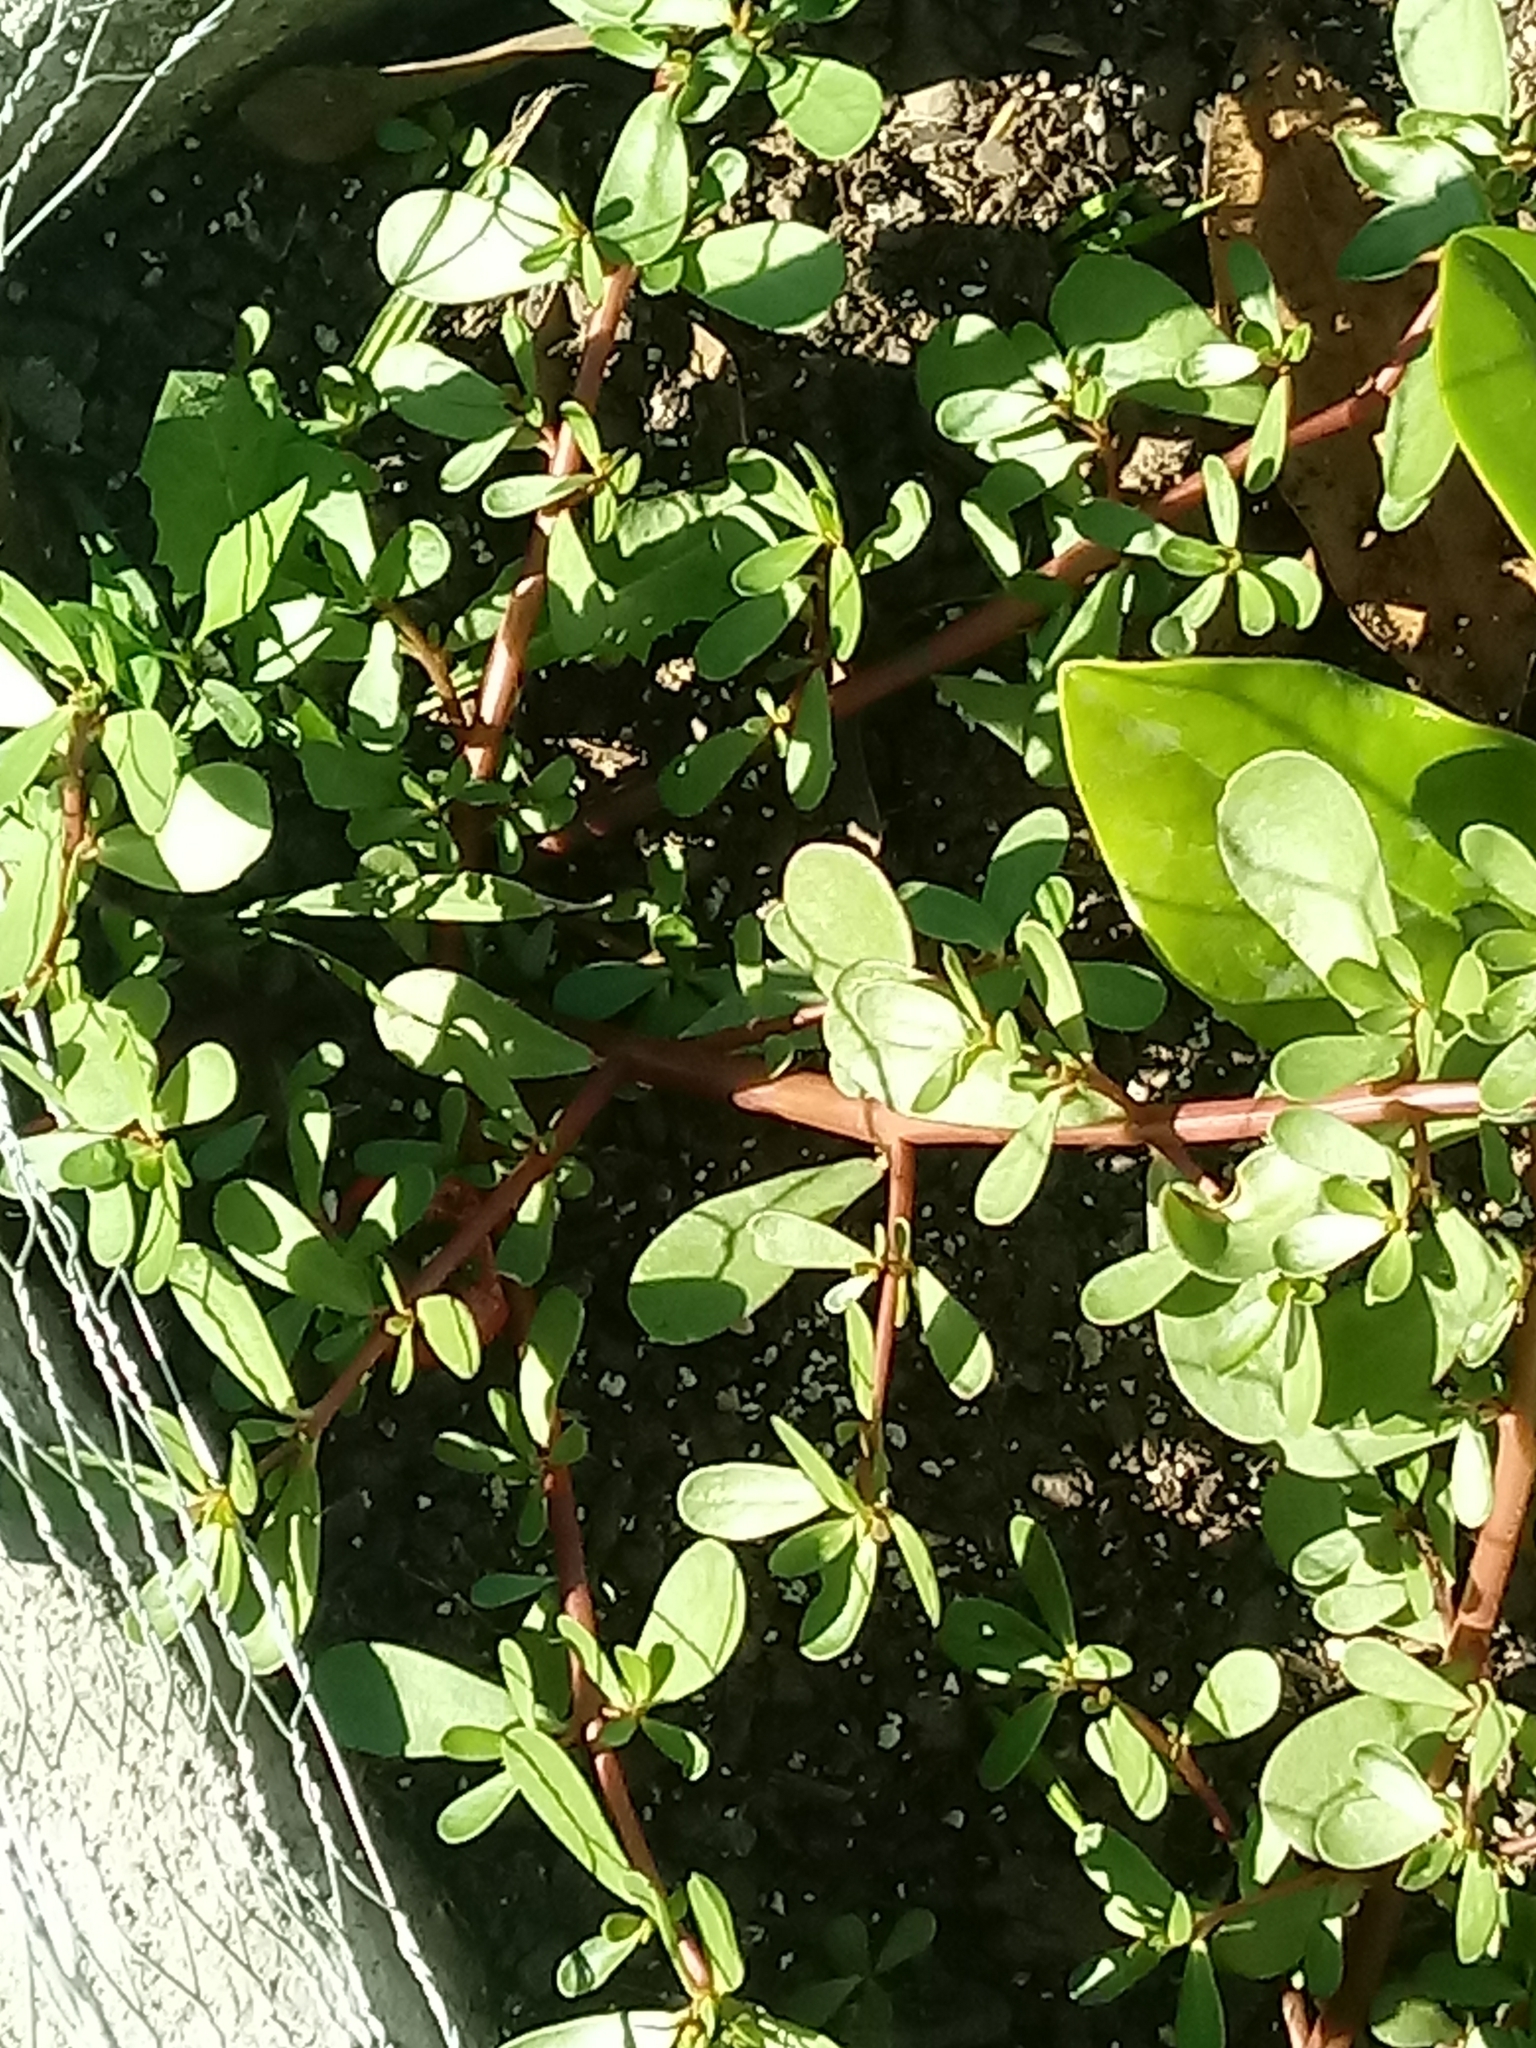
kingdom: Plantae
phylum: Tracheophyta
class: Magnoliopsida
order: Caryophyllales
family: Portulacaceae
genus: Portulaca
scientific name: Portulaca oleracea
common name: Common purslane
